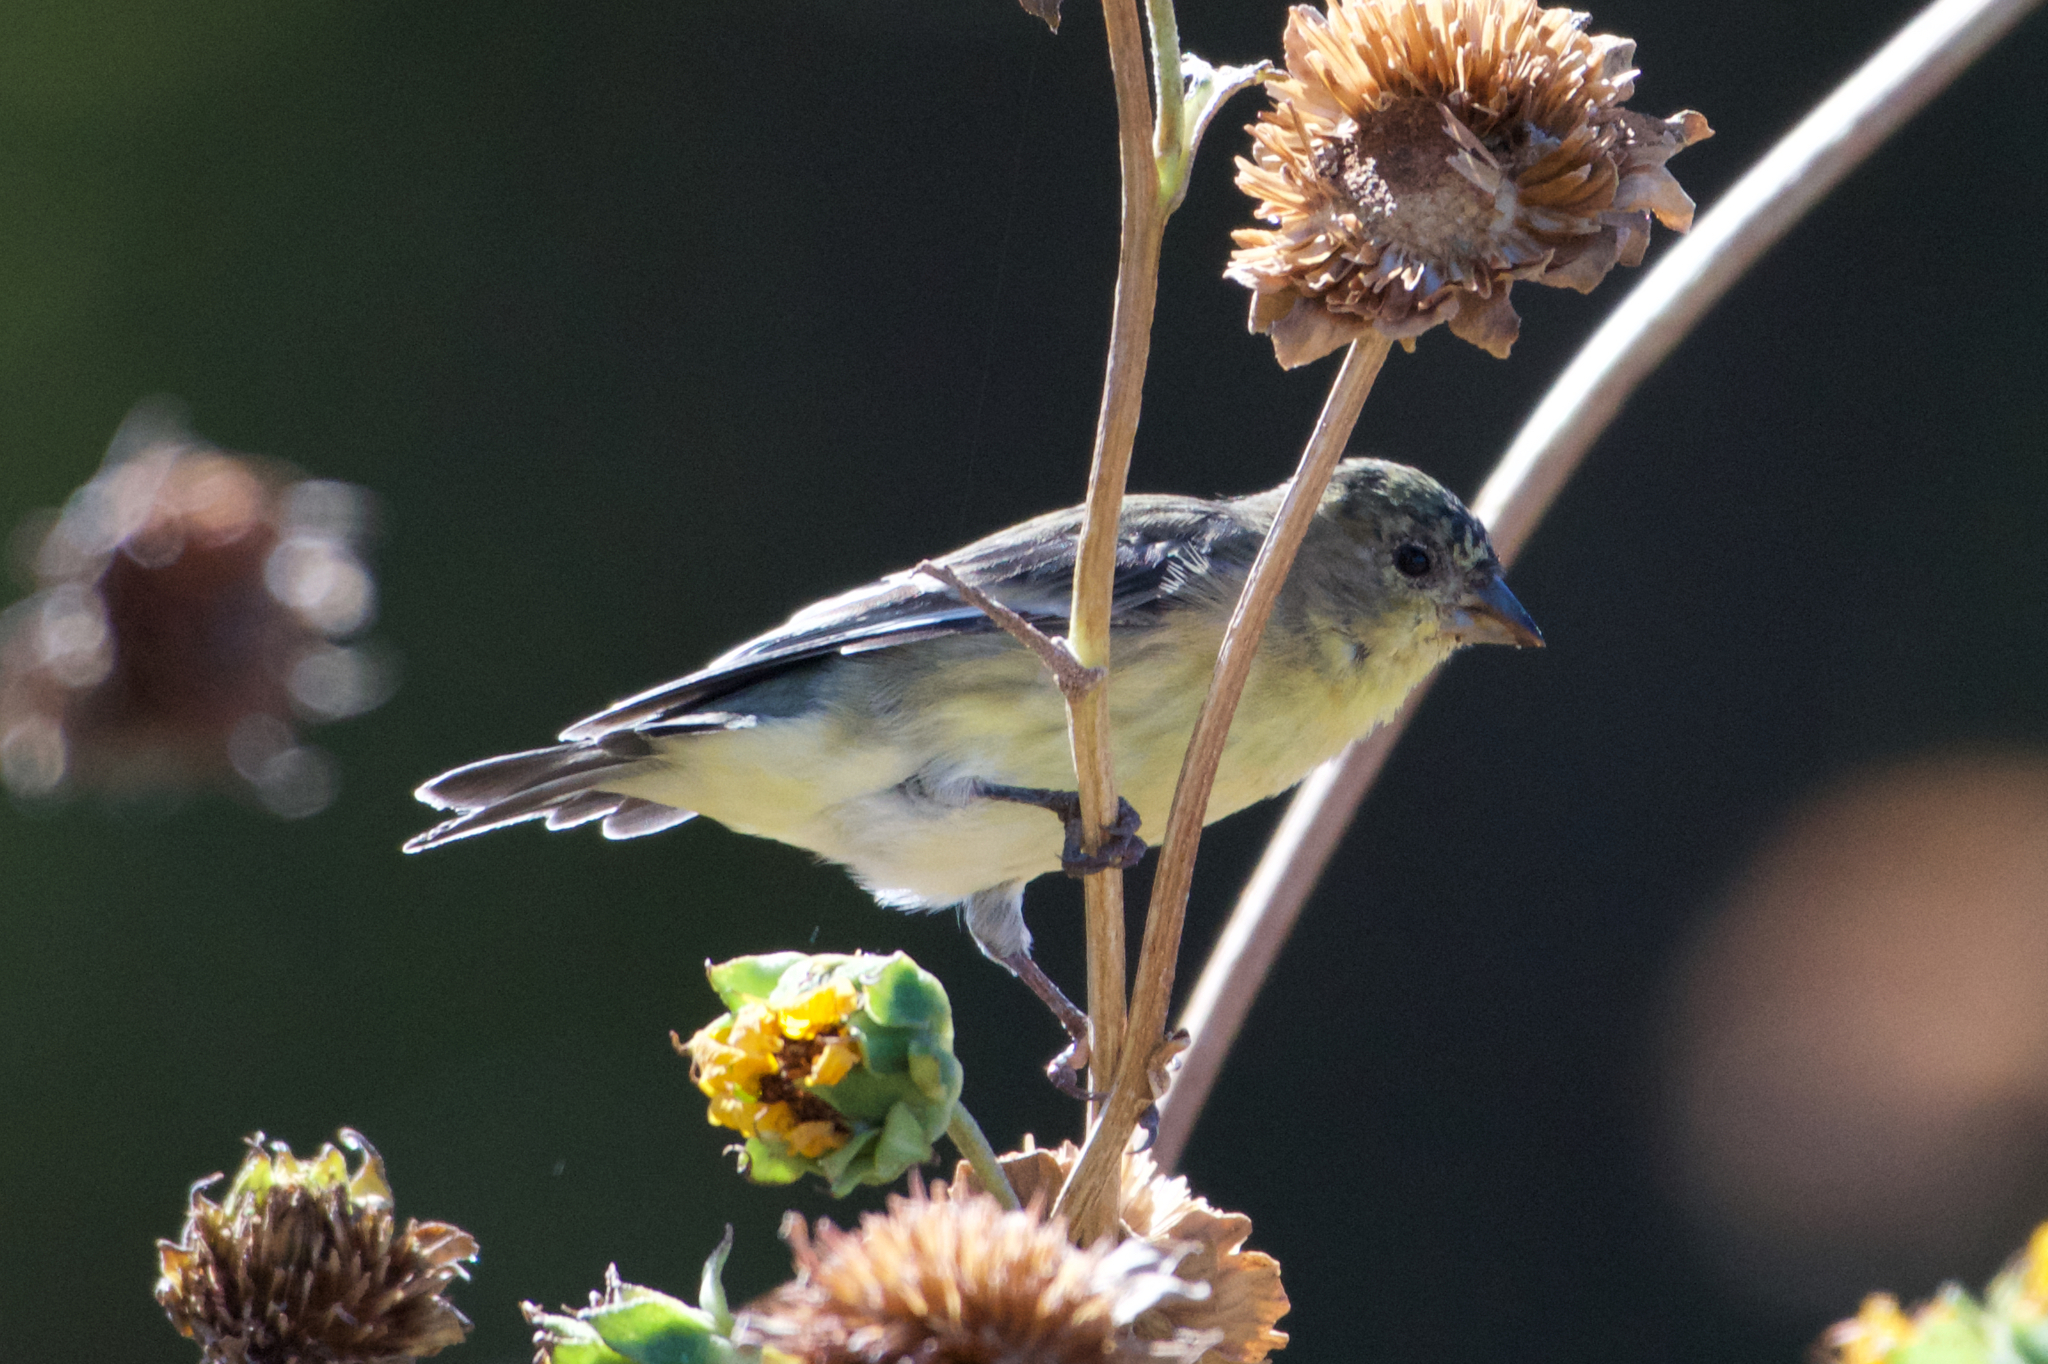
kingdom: Animalia
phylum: Chordata
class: Aves
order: Passeriformes
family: Fringillidae
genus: Spinus
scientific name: Spinus psaltria
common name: Lesser goldfinch
